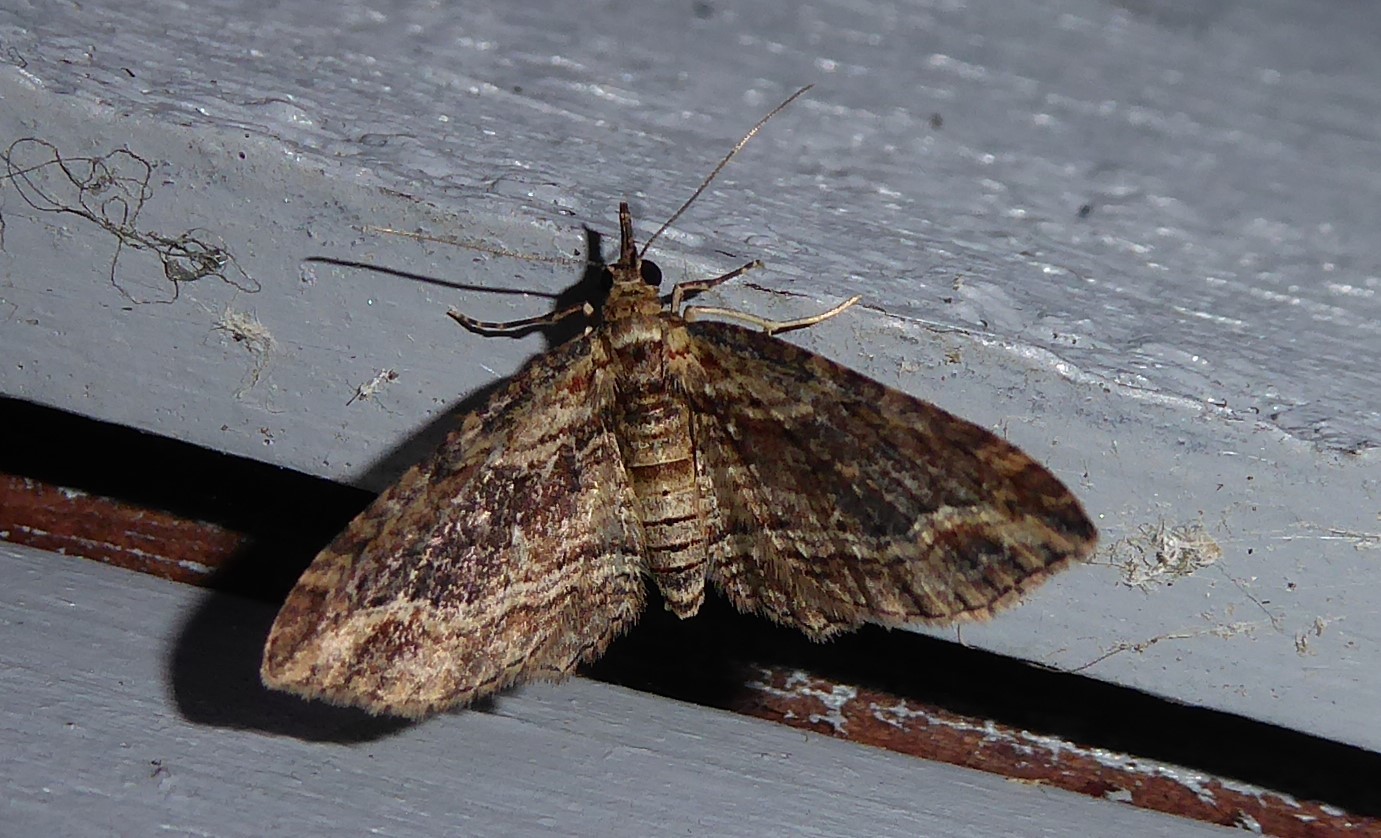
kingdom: Animalia
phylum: Arthropoda
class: Insecta
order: Lepidoptera
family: Geometridae
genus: Chloroclystis
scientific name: Chloroclystis filata
